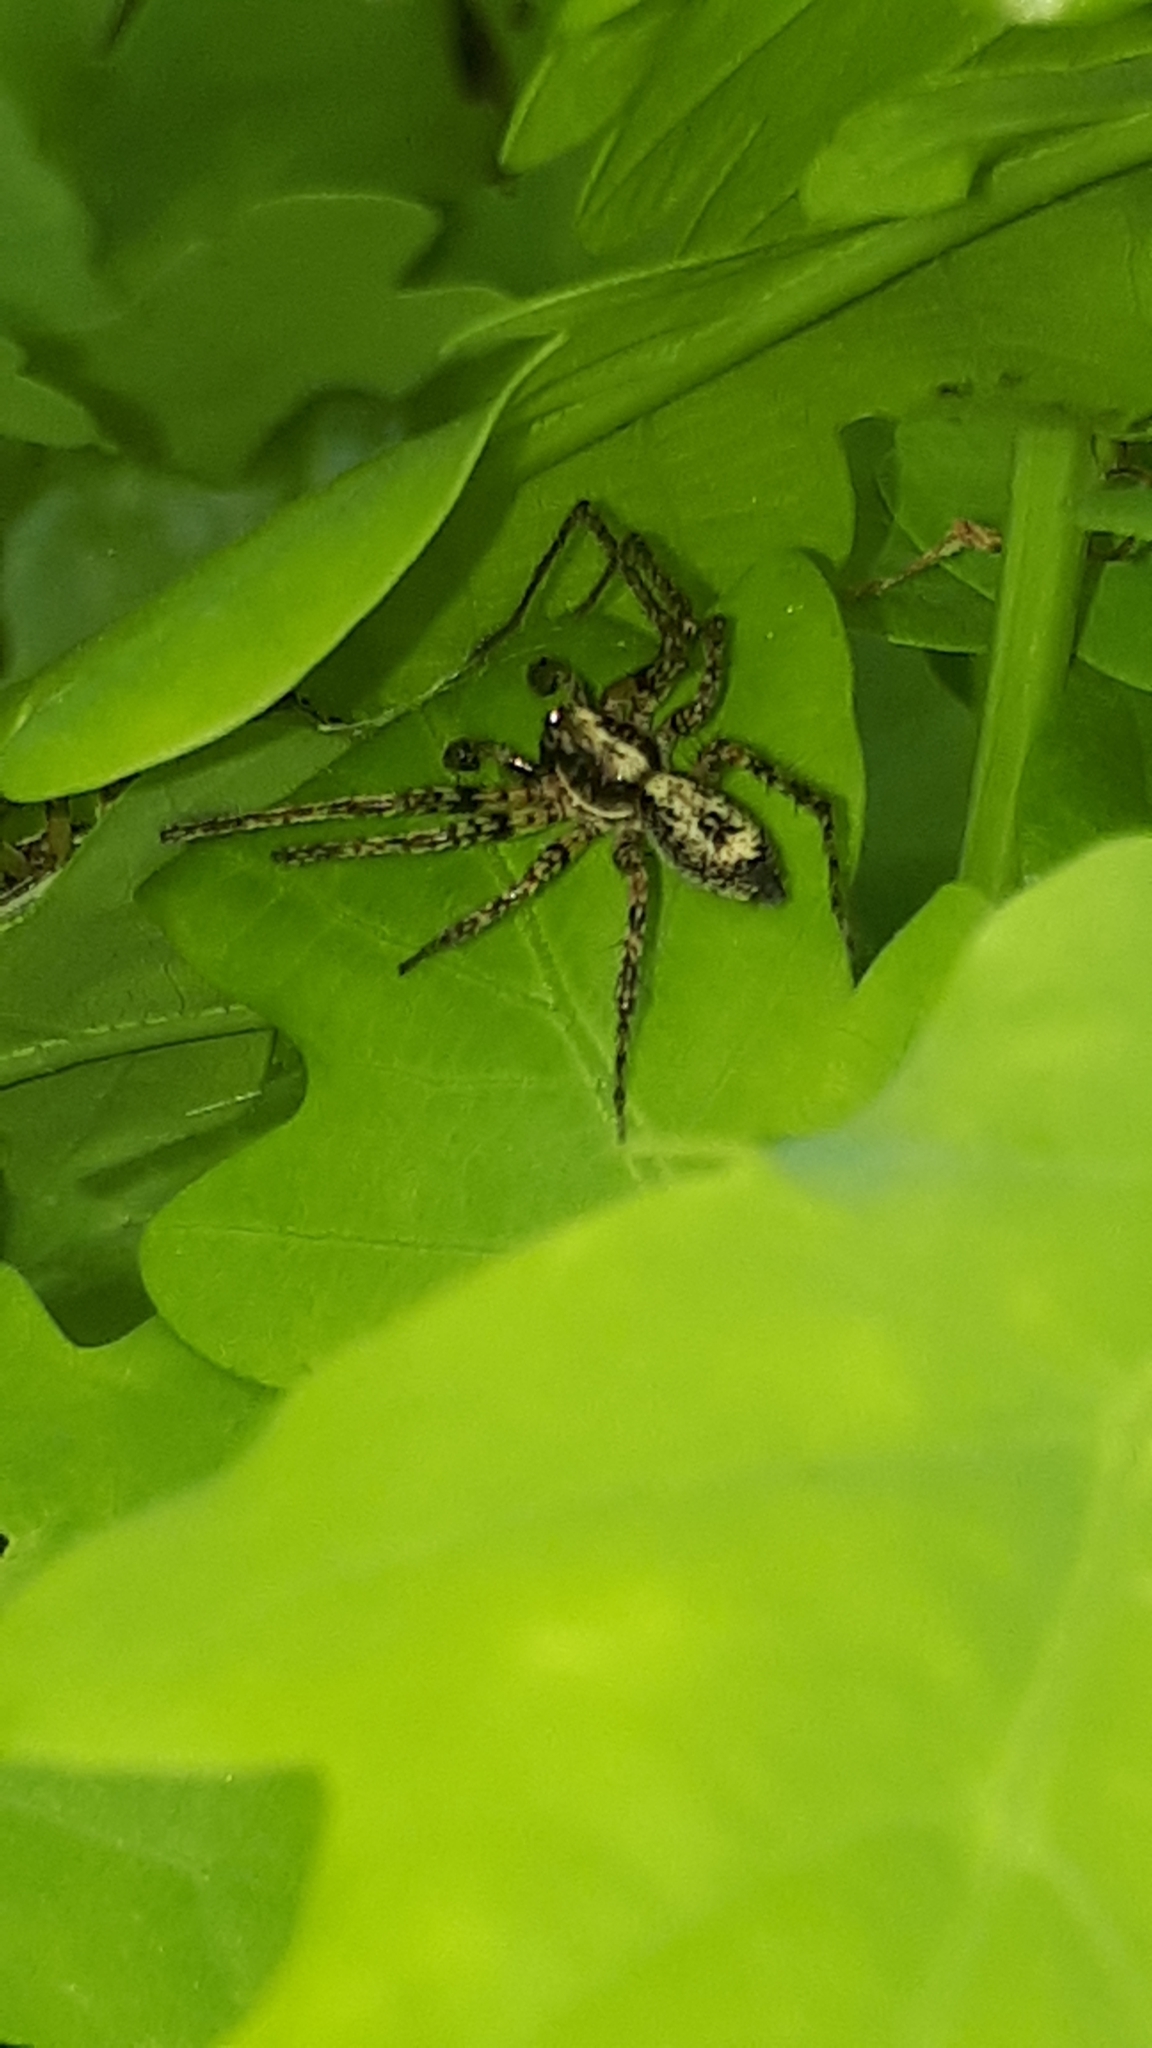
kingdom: Animalia
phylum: Arthropoda
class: Arachnida
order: Araneae
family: Anyphaenidae
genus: Anyphaena
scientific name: Anyphaena accentuata
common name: Buzzing spider
